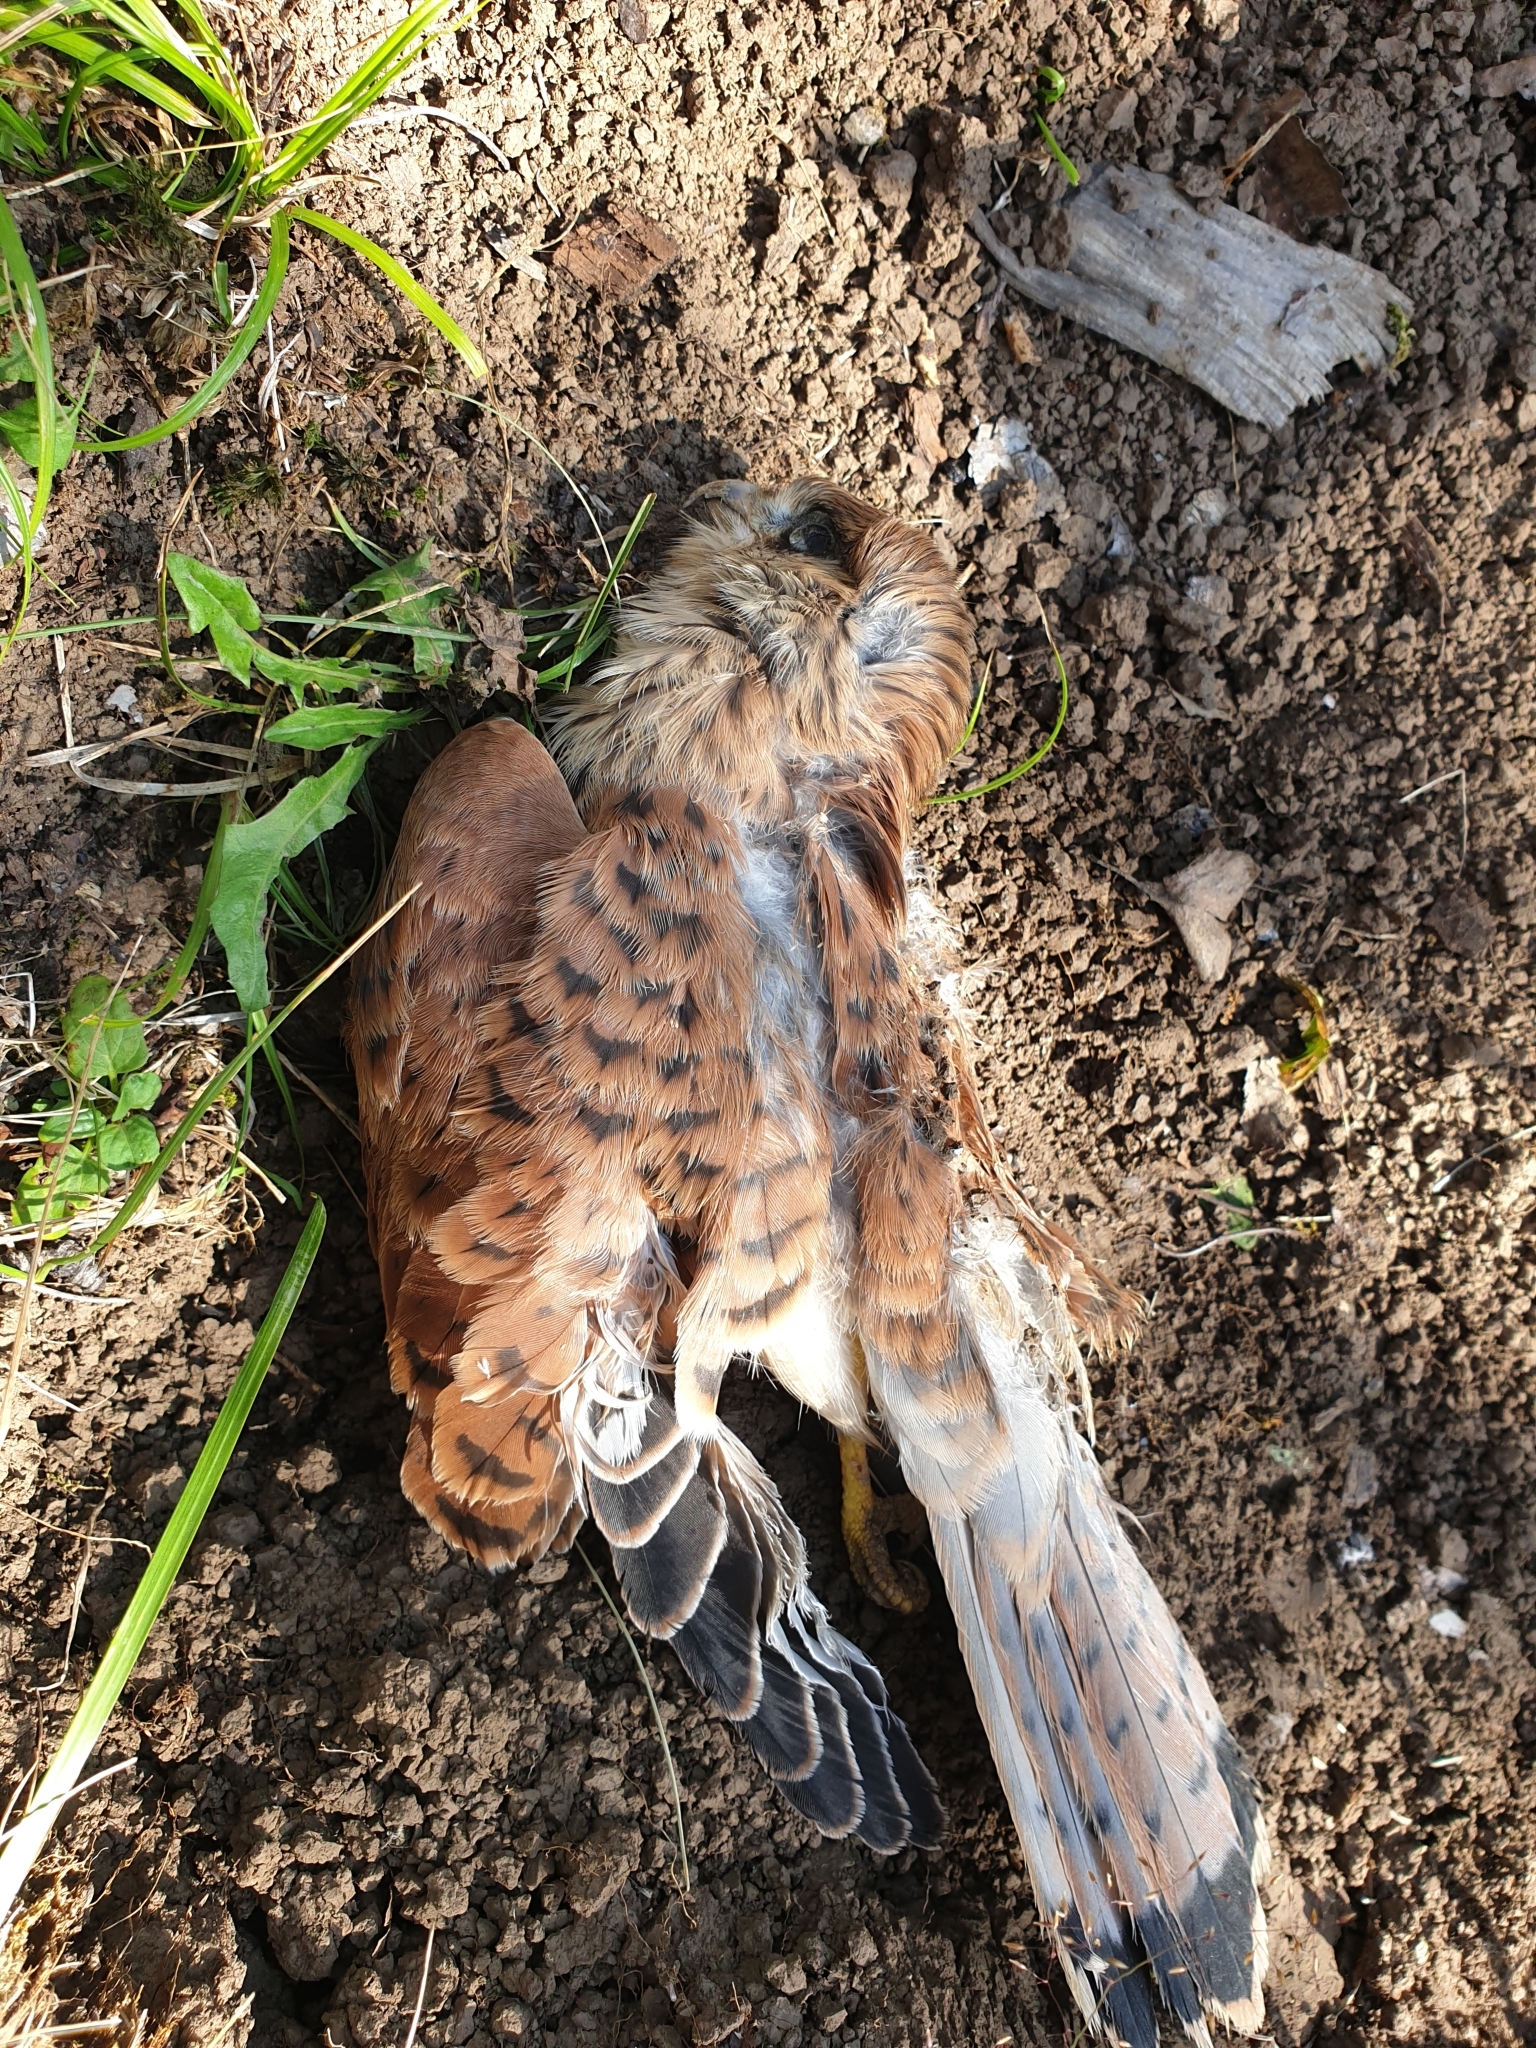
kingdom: Animalia
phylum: Chordata
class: Aves
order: Falconiformes
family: Falconidae
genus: Falco
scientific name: Falco tinnunculus
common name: Common kestrel
